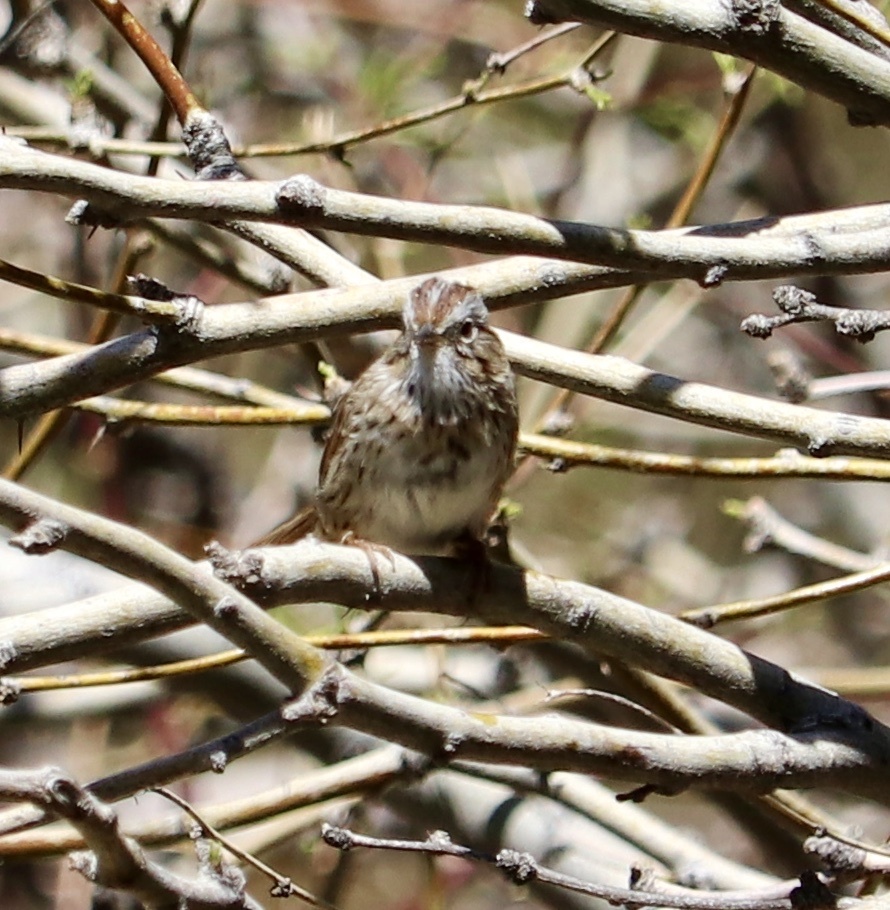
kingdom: Animalia
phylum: Chordata
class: Aves
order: Passeriformes
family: Passerellidae
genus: Melospiza
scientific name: Melospiza lincolnii
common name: Lincoln's sparrow
